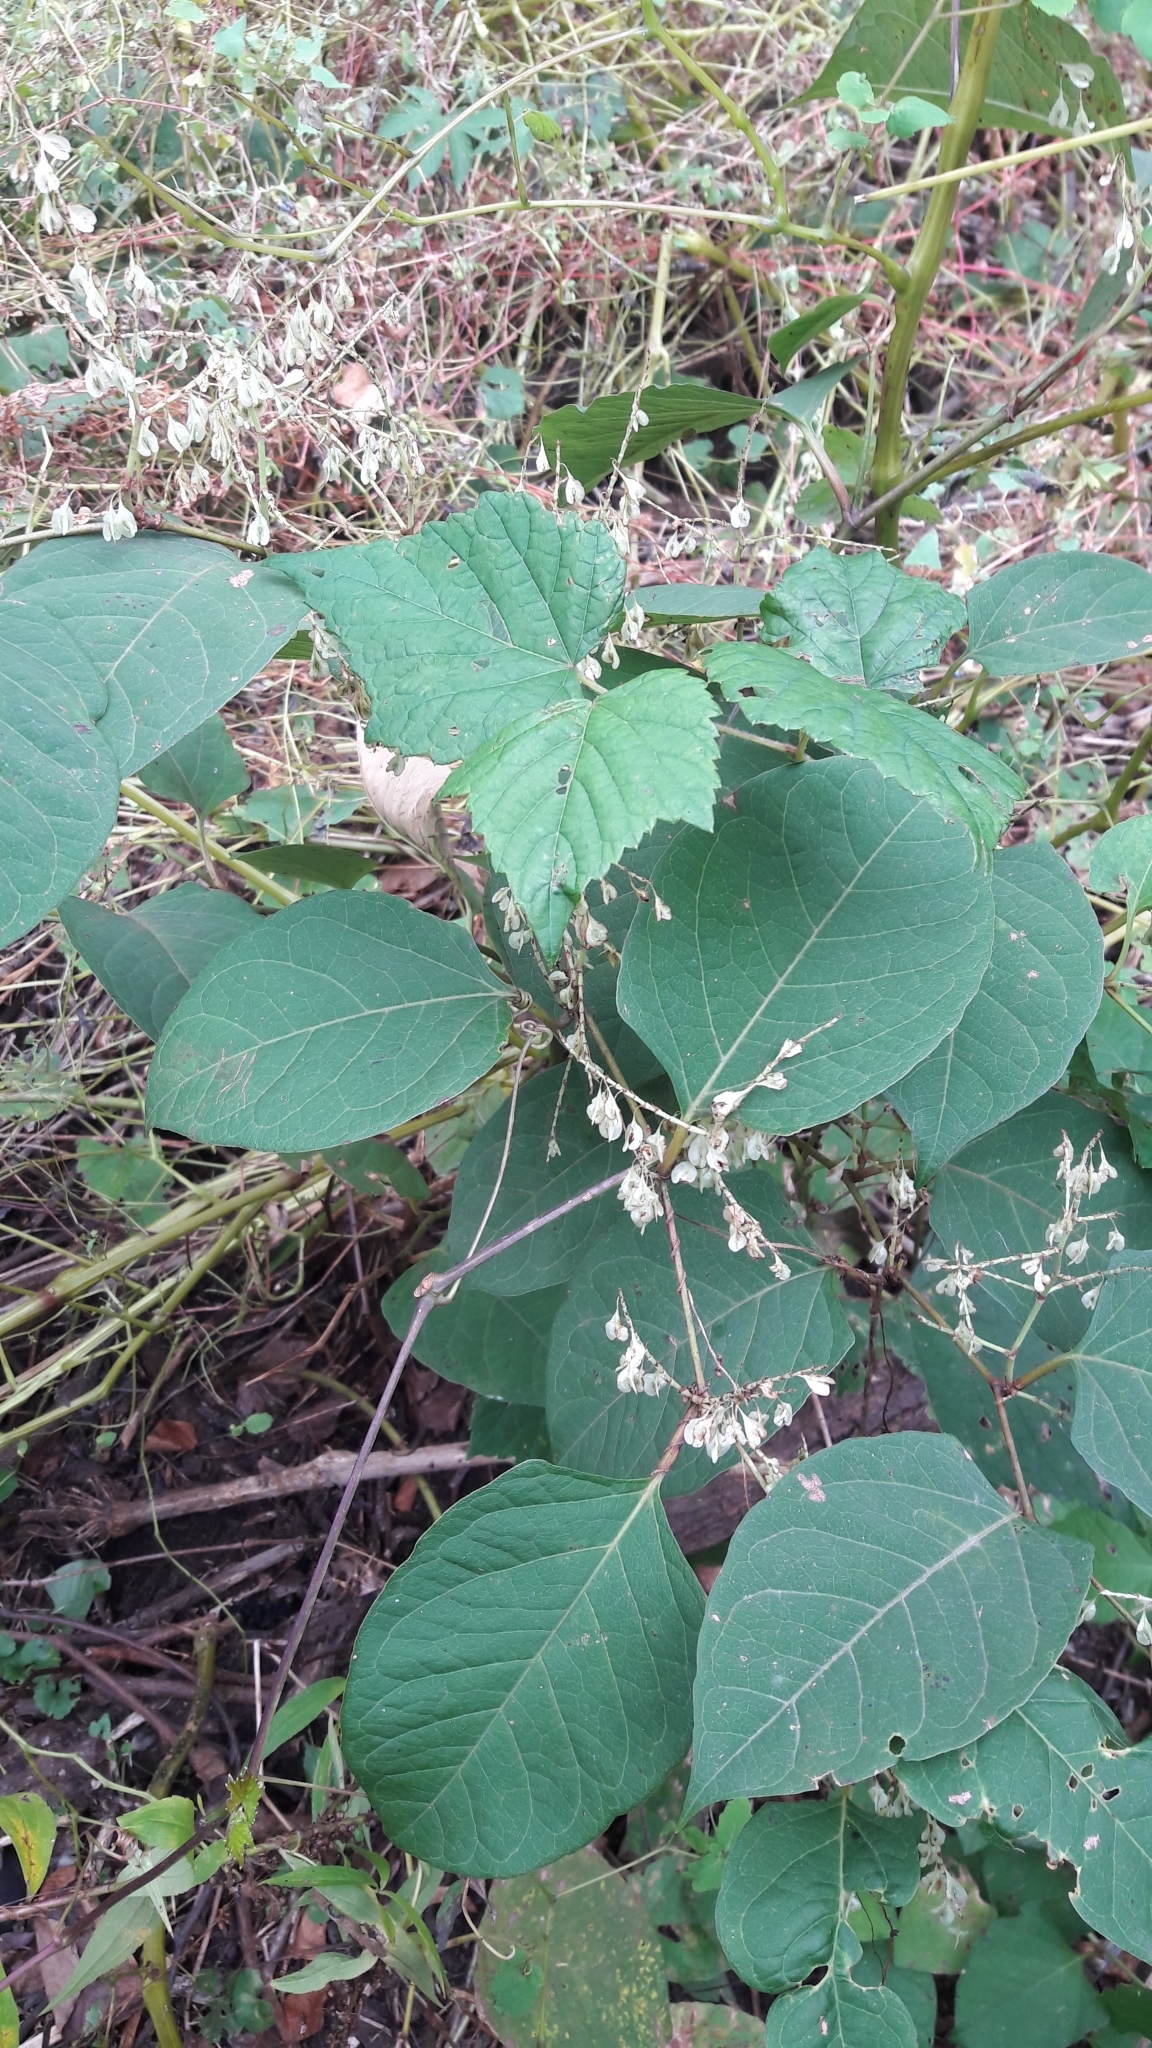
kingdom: Plantae
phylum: Tracheophyta
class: Magnoliopsida
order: Caryophyllales
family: Polygonaceae
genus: Reynoutria
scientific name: Reynoutria japonica
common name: Japanese knotweed
